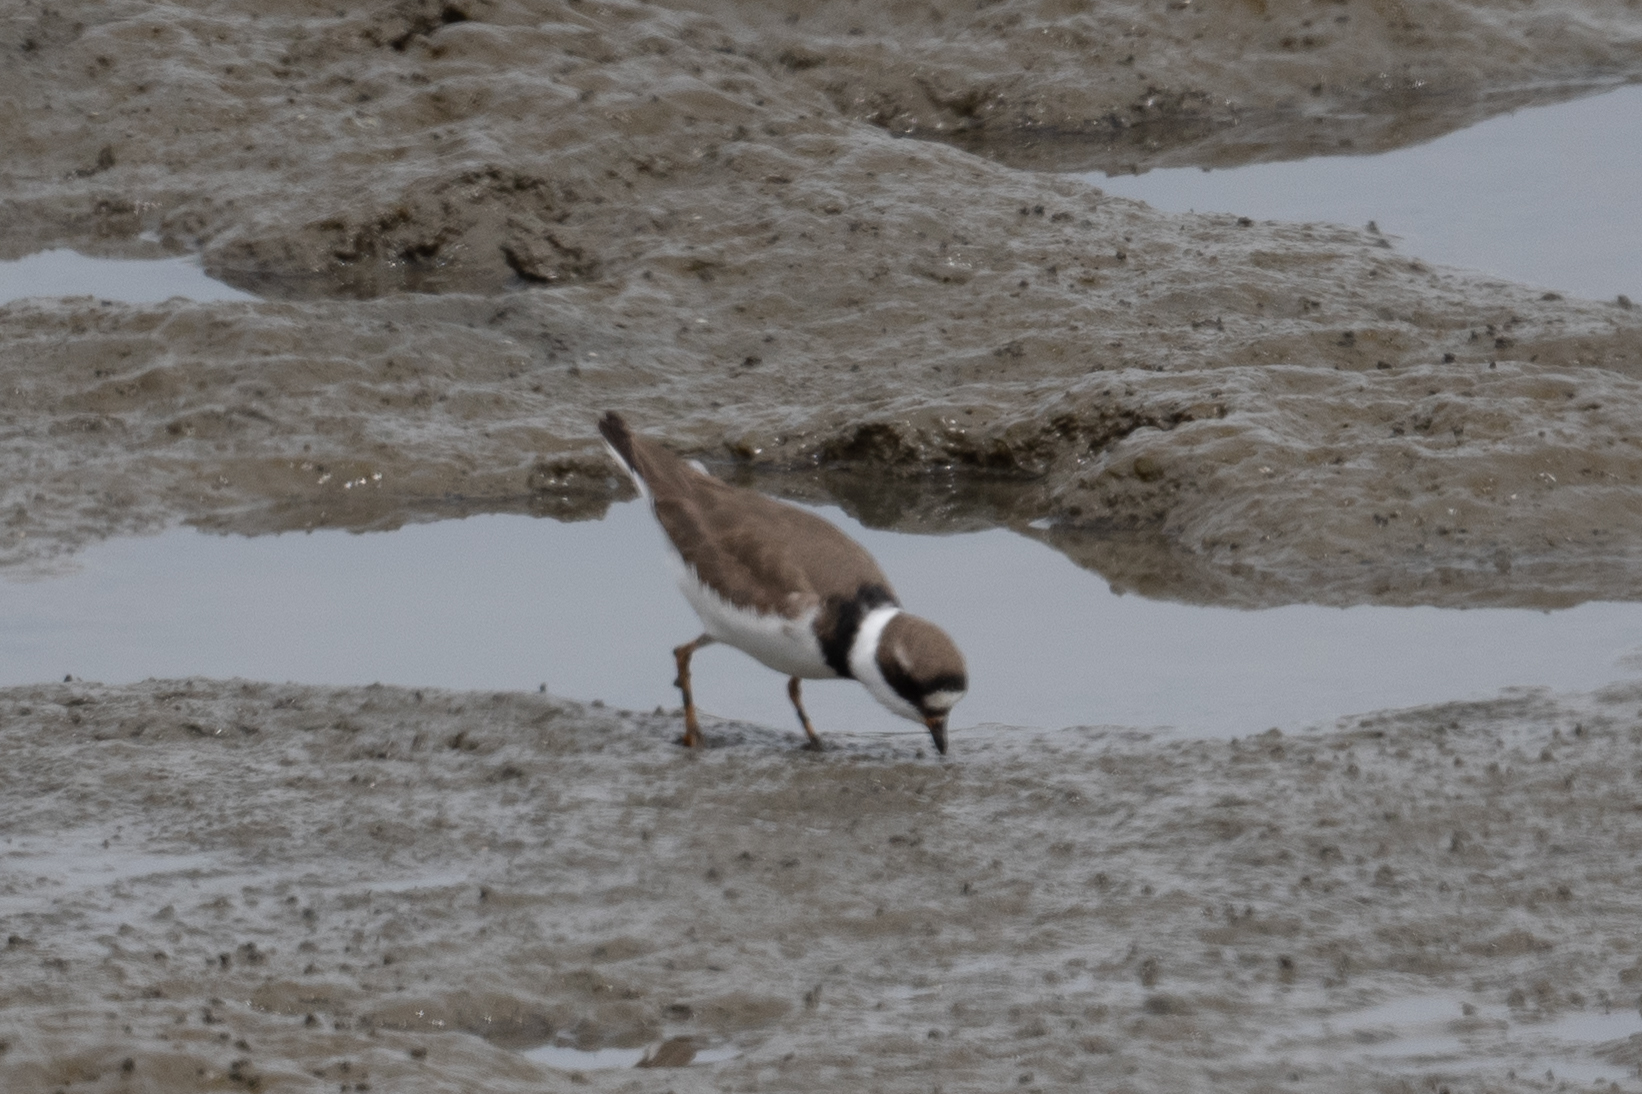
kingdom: Animalia
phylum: Chordata
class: Aves
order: Charadriiformes
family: Charadriidae
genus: Charadrius
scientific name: Charadrius semipalmatus
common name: Semipalmated plover
